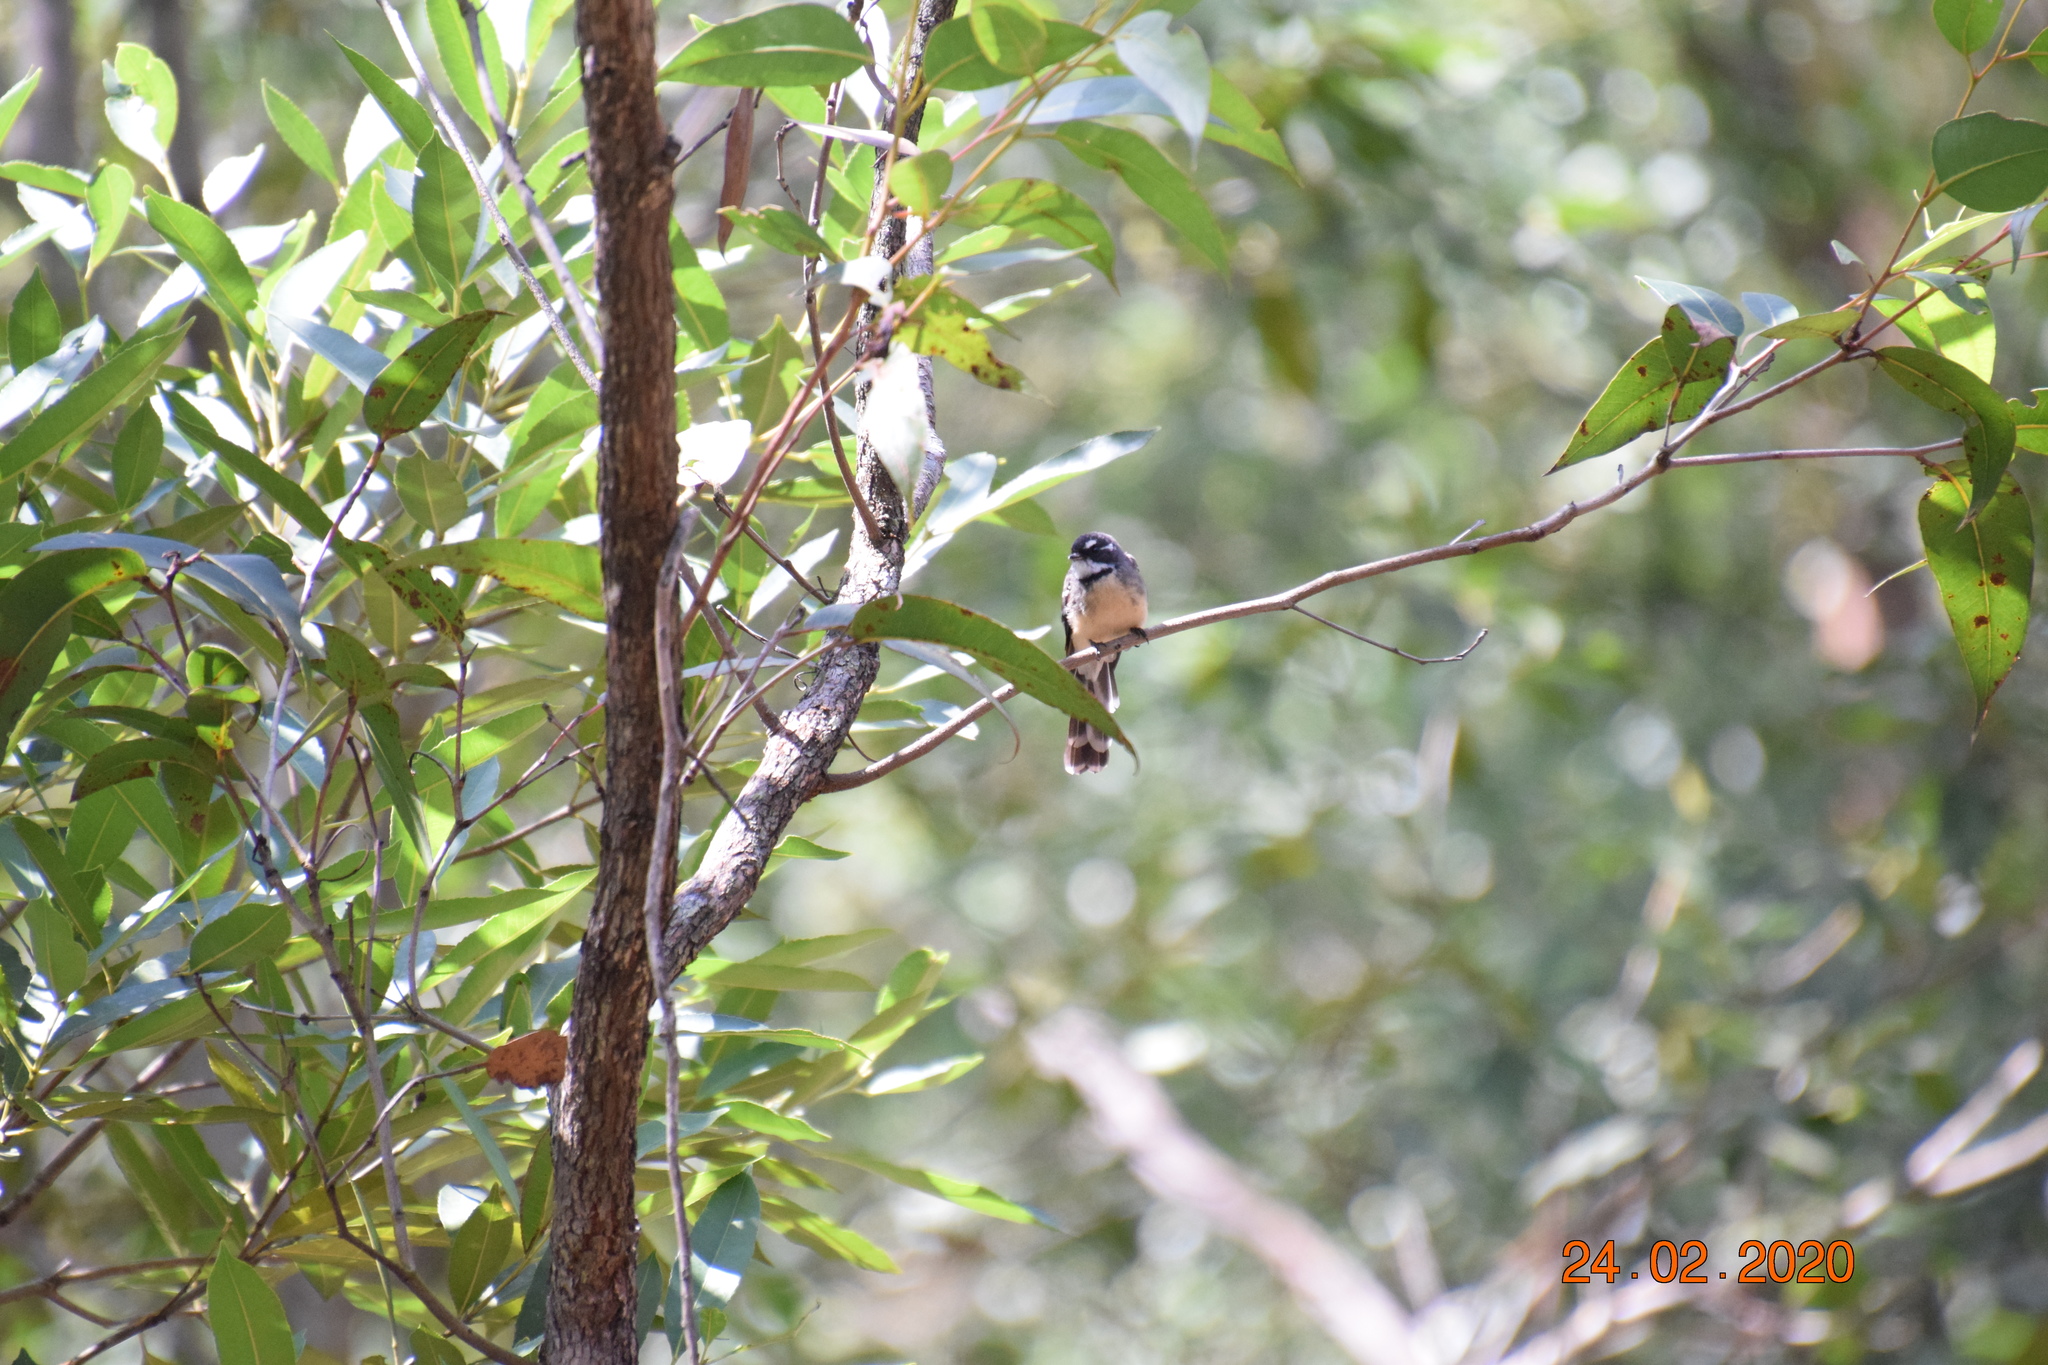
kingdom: Animalia
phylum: Chordata
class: Aves
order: Passeriformes
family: Rhipiduridae
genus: Rhipidura
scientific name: Rhipidura albiscapa
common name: Grey fantail
